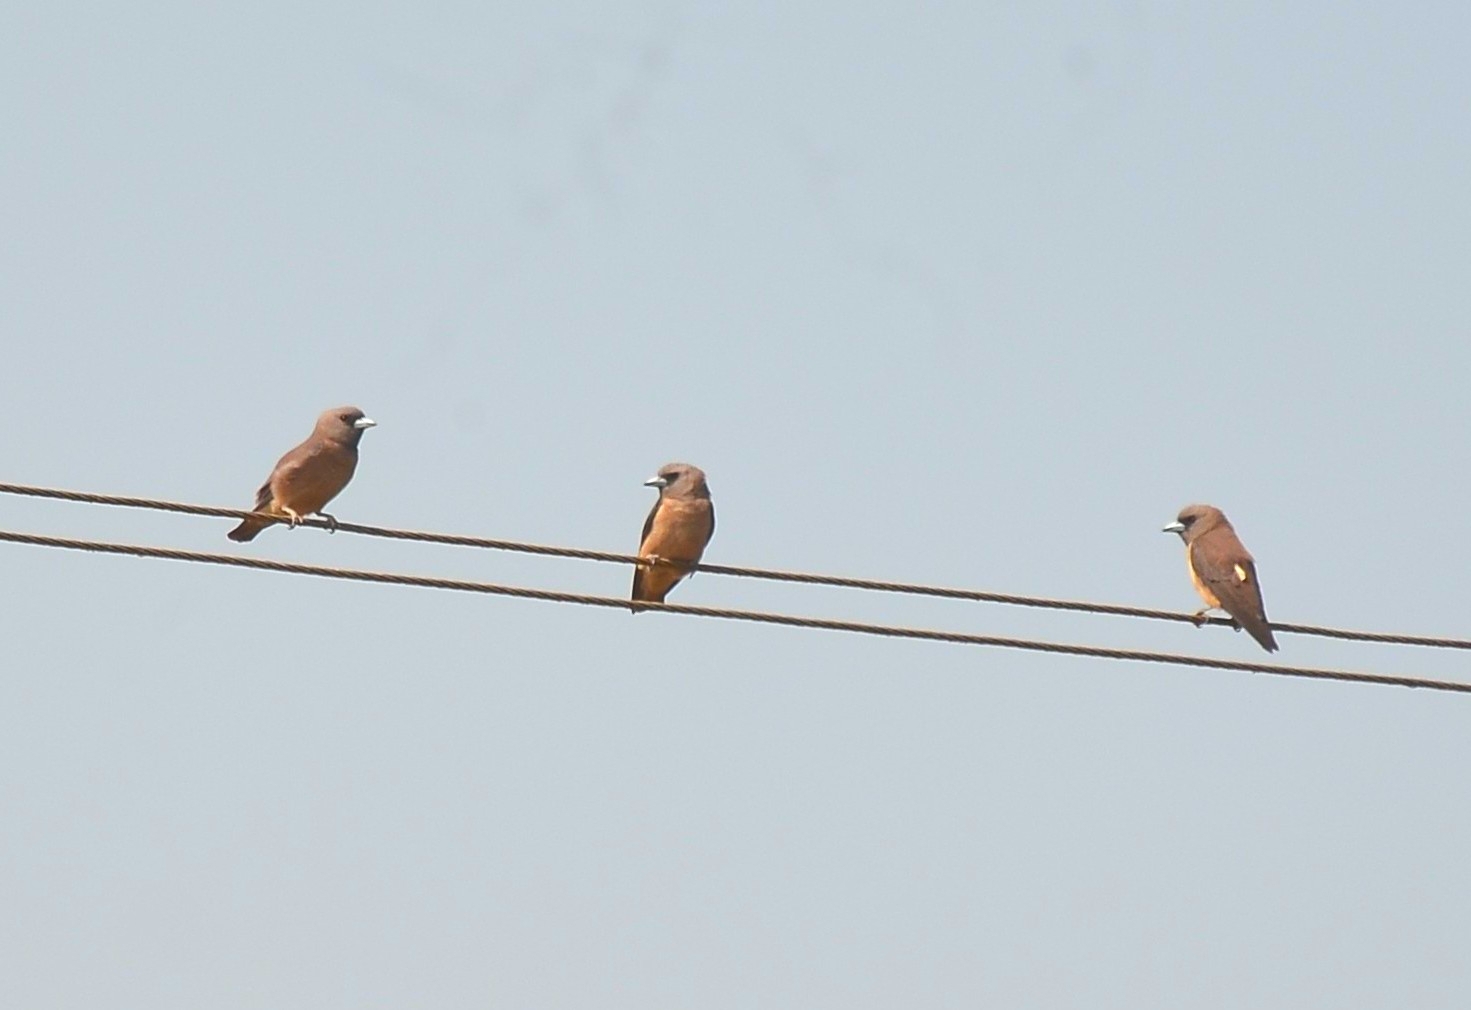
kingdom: Animalia
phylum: Chordata
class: Aves
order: Passeriformes
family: Artamidae
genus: Artamus
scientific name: Artamus fuscus
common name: Ashy woodswallow
